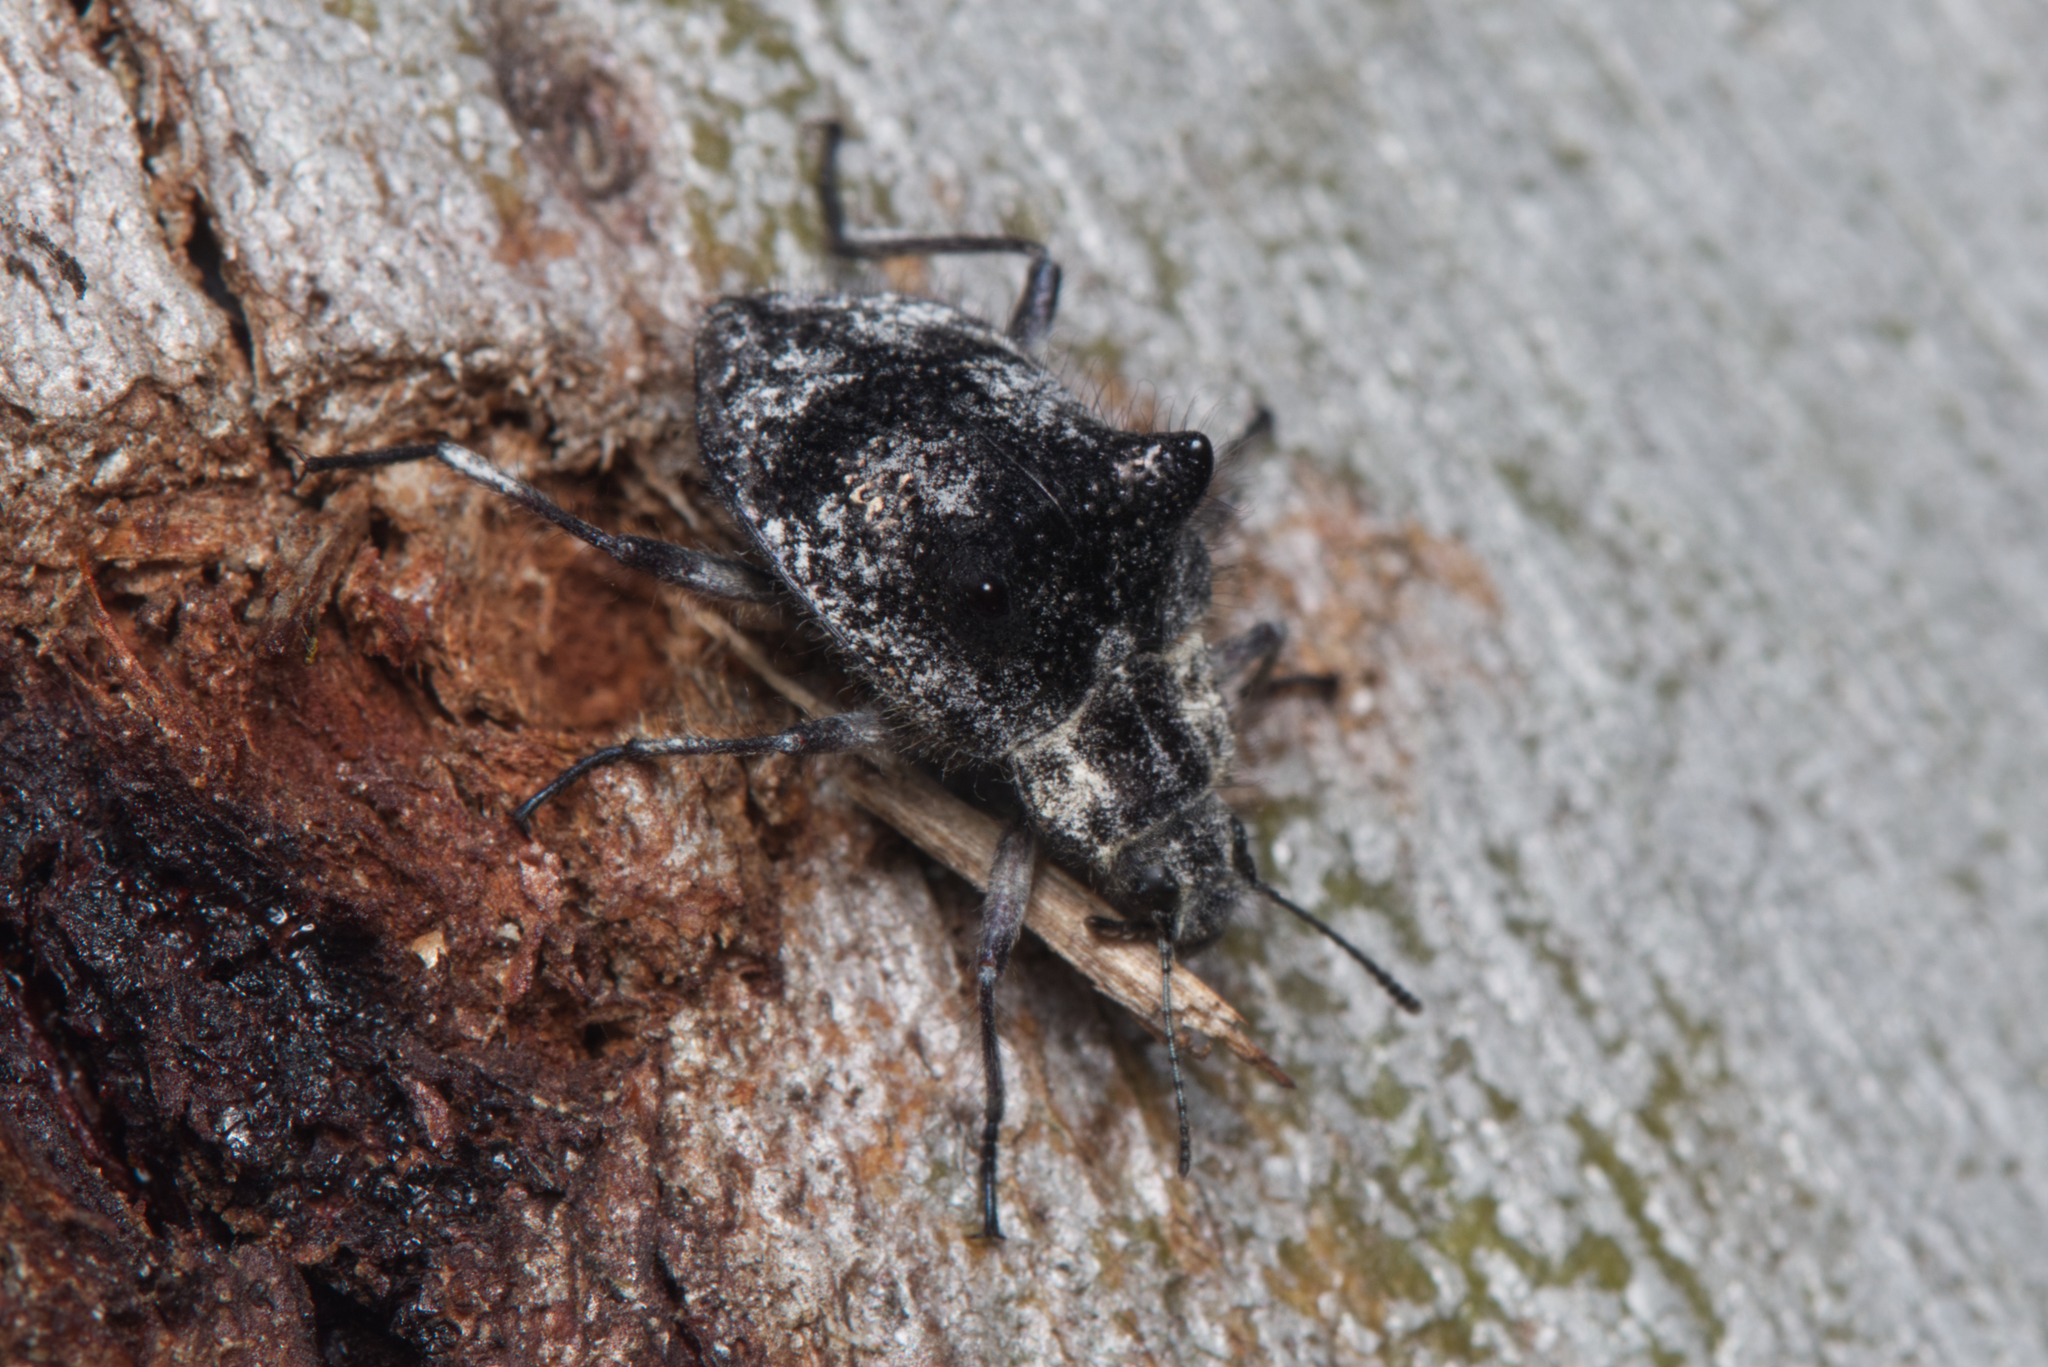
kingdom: Animalia
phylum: Arthropoda
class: Insecta
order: Coleoptera
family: Tenebrionidae
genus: Cyphaleus
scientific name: Cyphaleus
